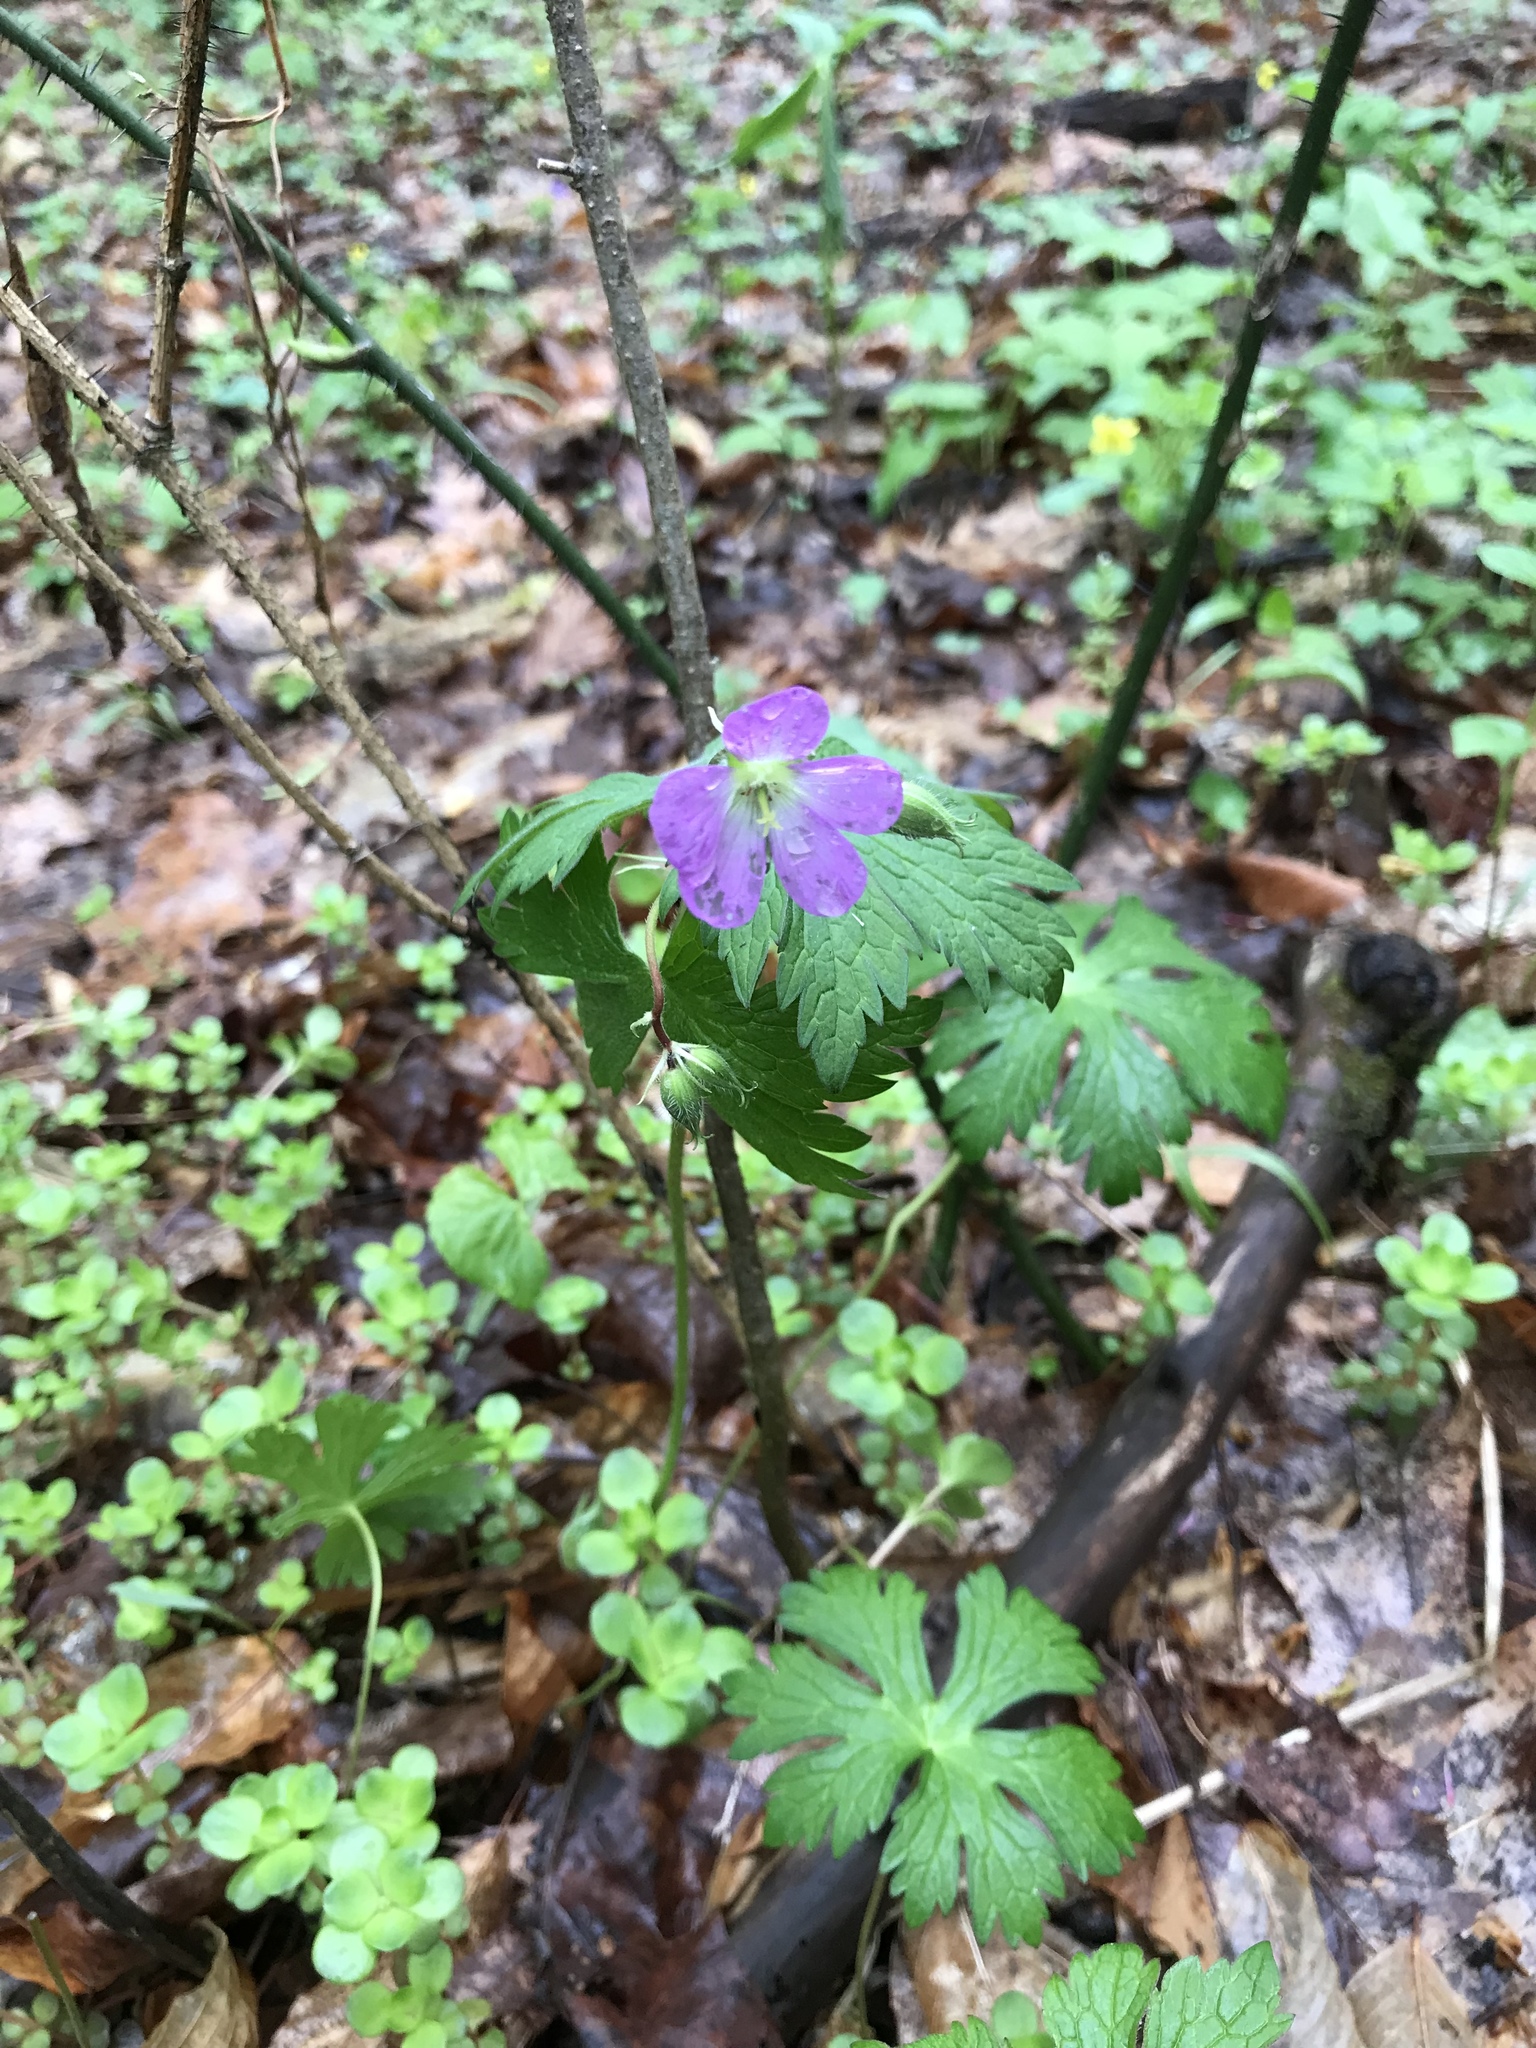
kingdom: Plantae
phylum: Tracheophyta
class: Magnoliopsida
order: Geraniales
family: Geraniaceae
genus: Geranium
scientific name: Geranium maculatum
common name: Spotted geranium
